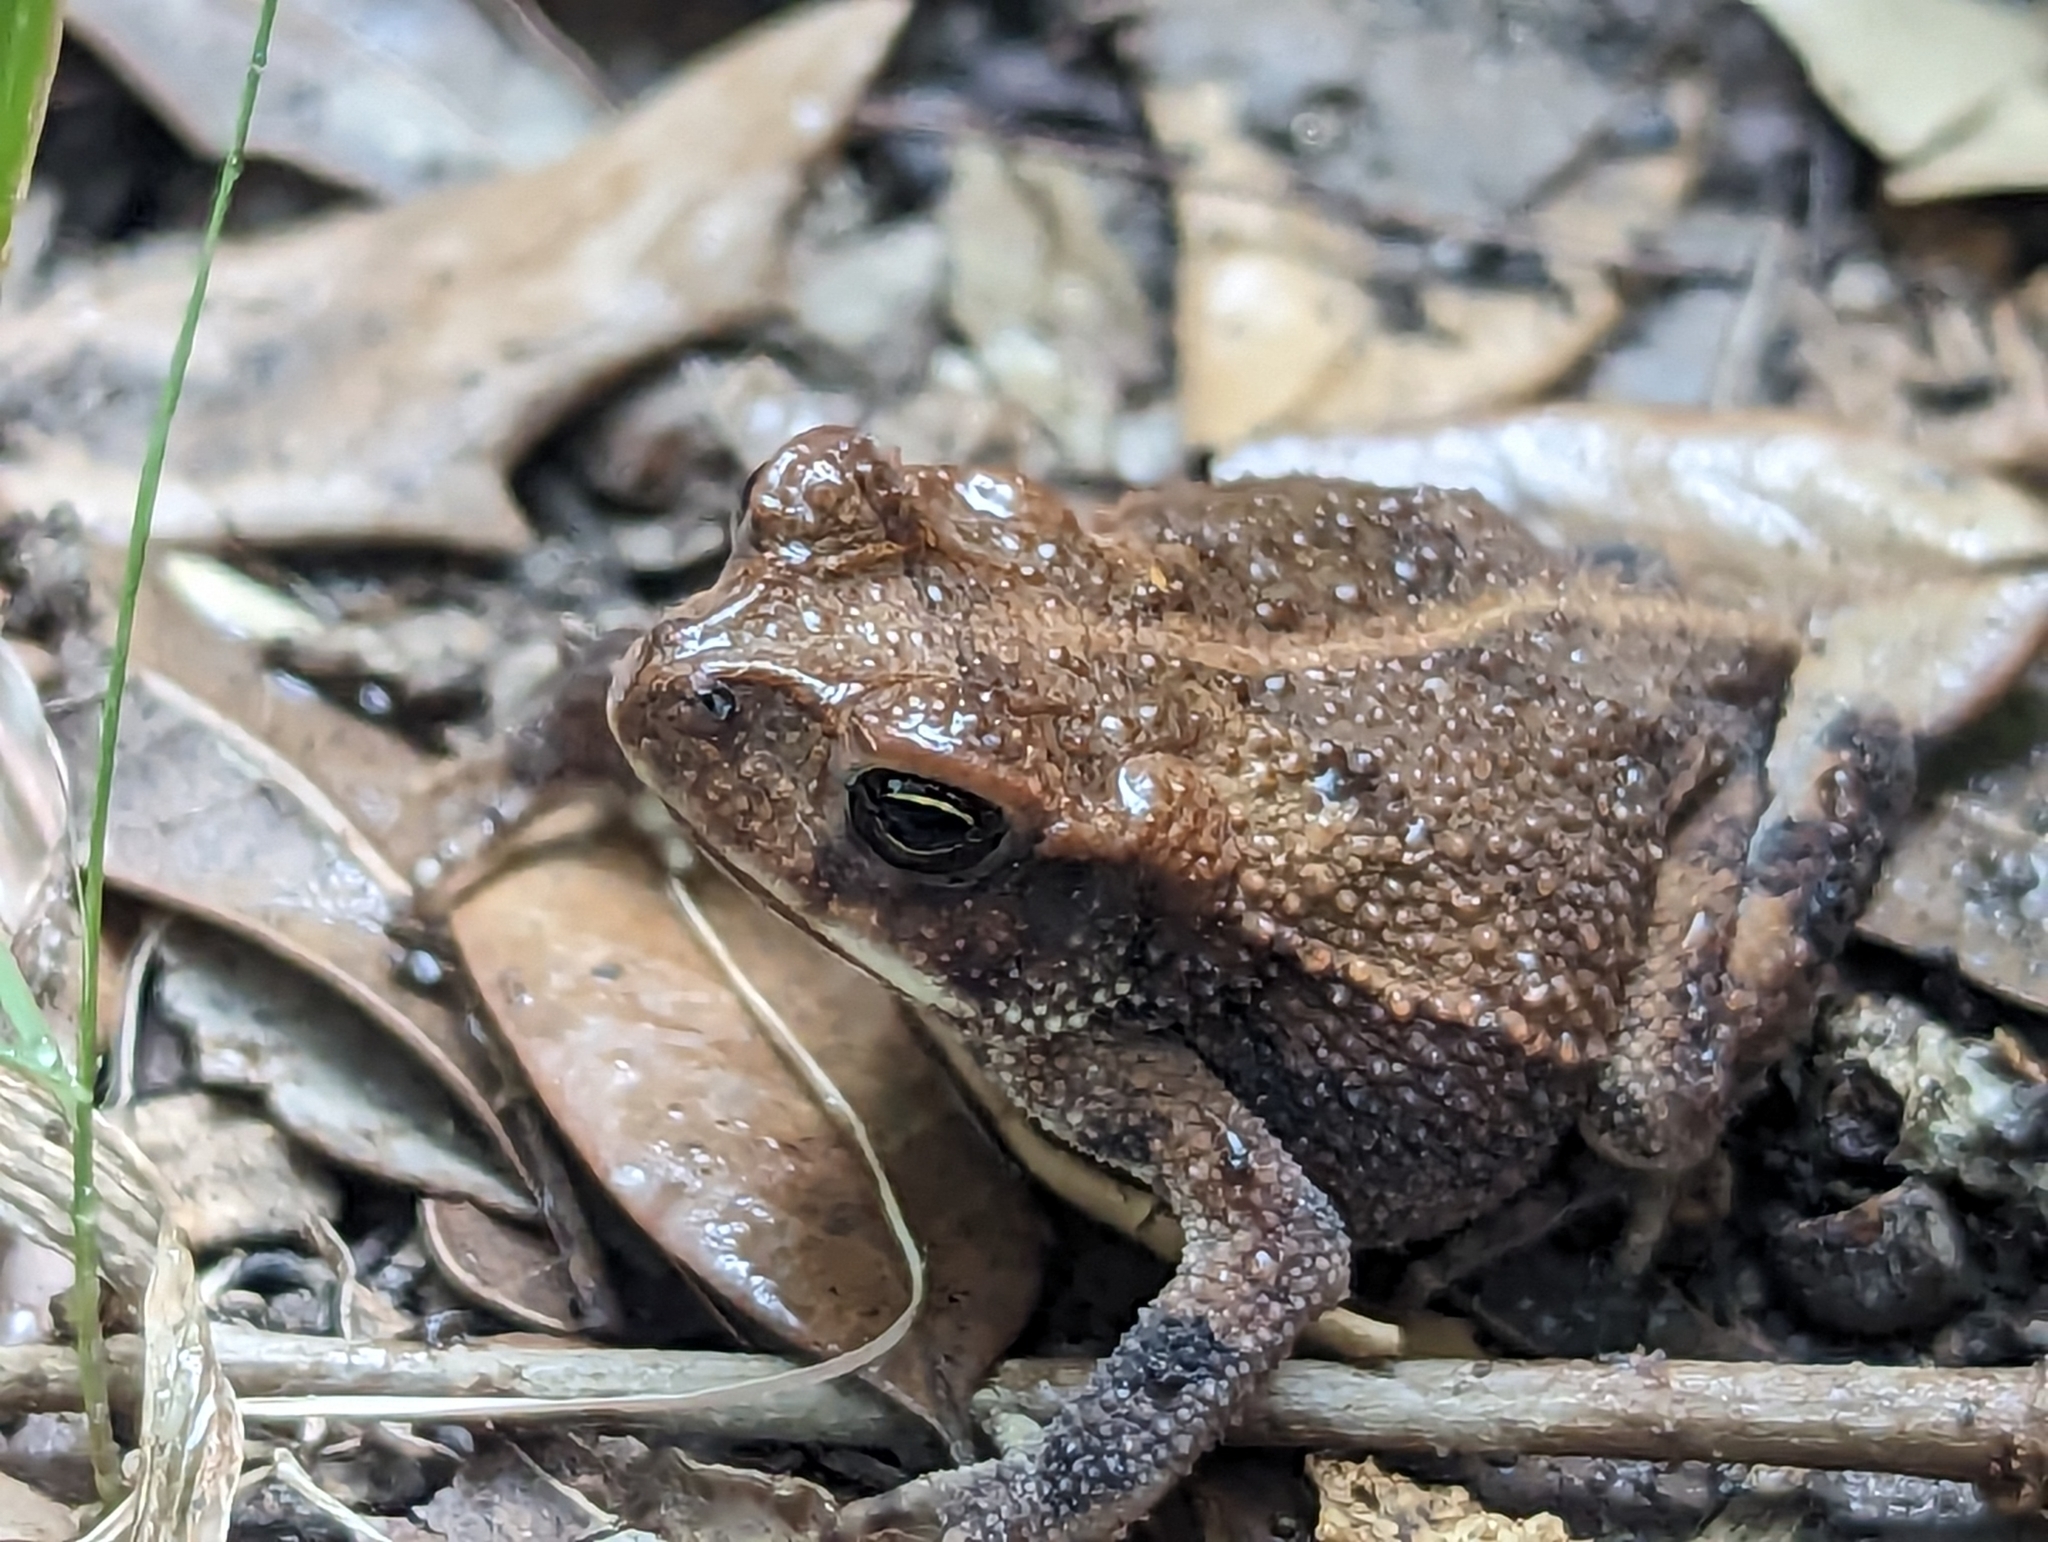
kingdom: Animalia
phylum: Chordata
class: Amphibia
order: Anura
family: Bufonidae
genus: Incilius
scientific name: Incilius nebulifer
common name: Gulf coast toad
